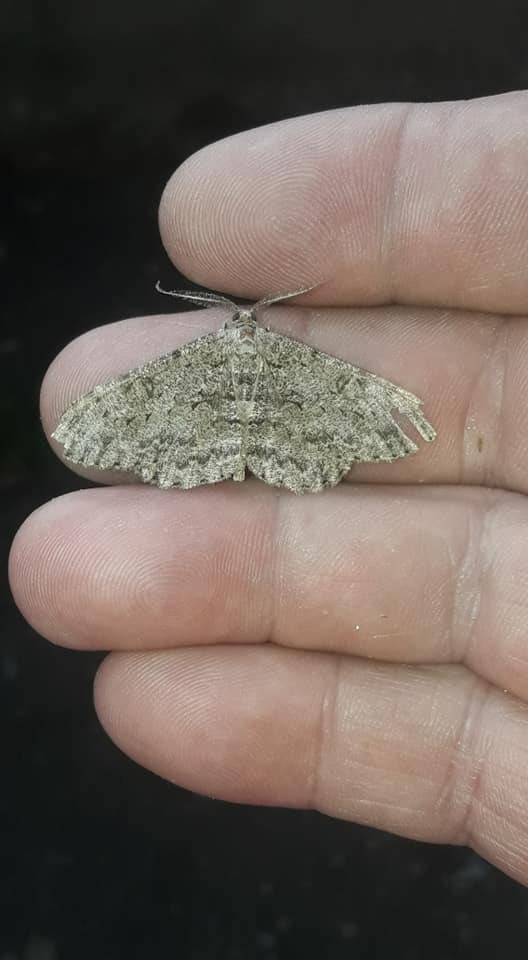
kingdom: Animalia
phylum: Arthropoda
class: Insecta
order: Lepidoptera
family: Geometridae
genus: Hypomecis
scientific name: Hypomecis punctinalis
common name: Pale oak beauty
